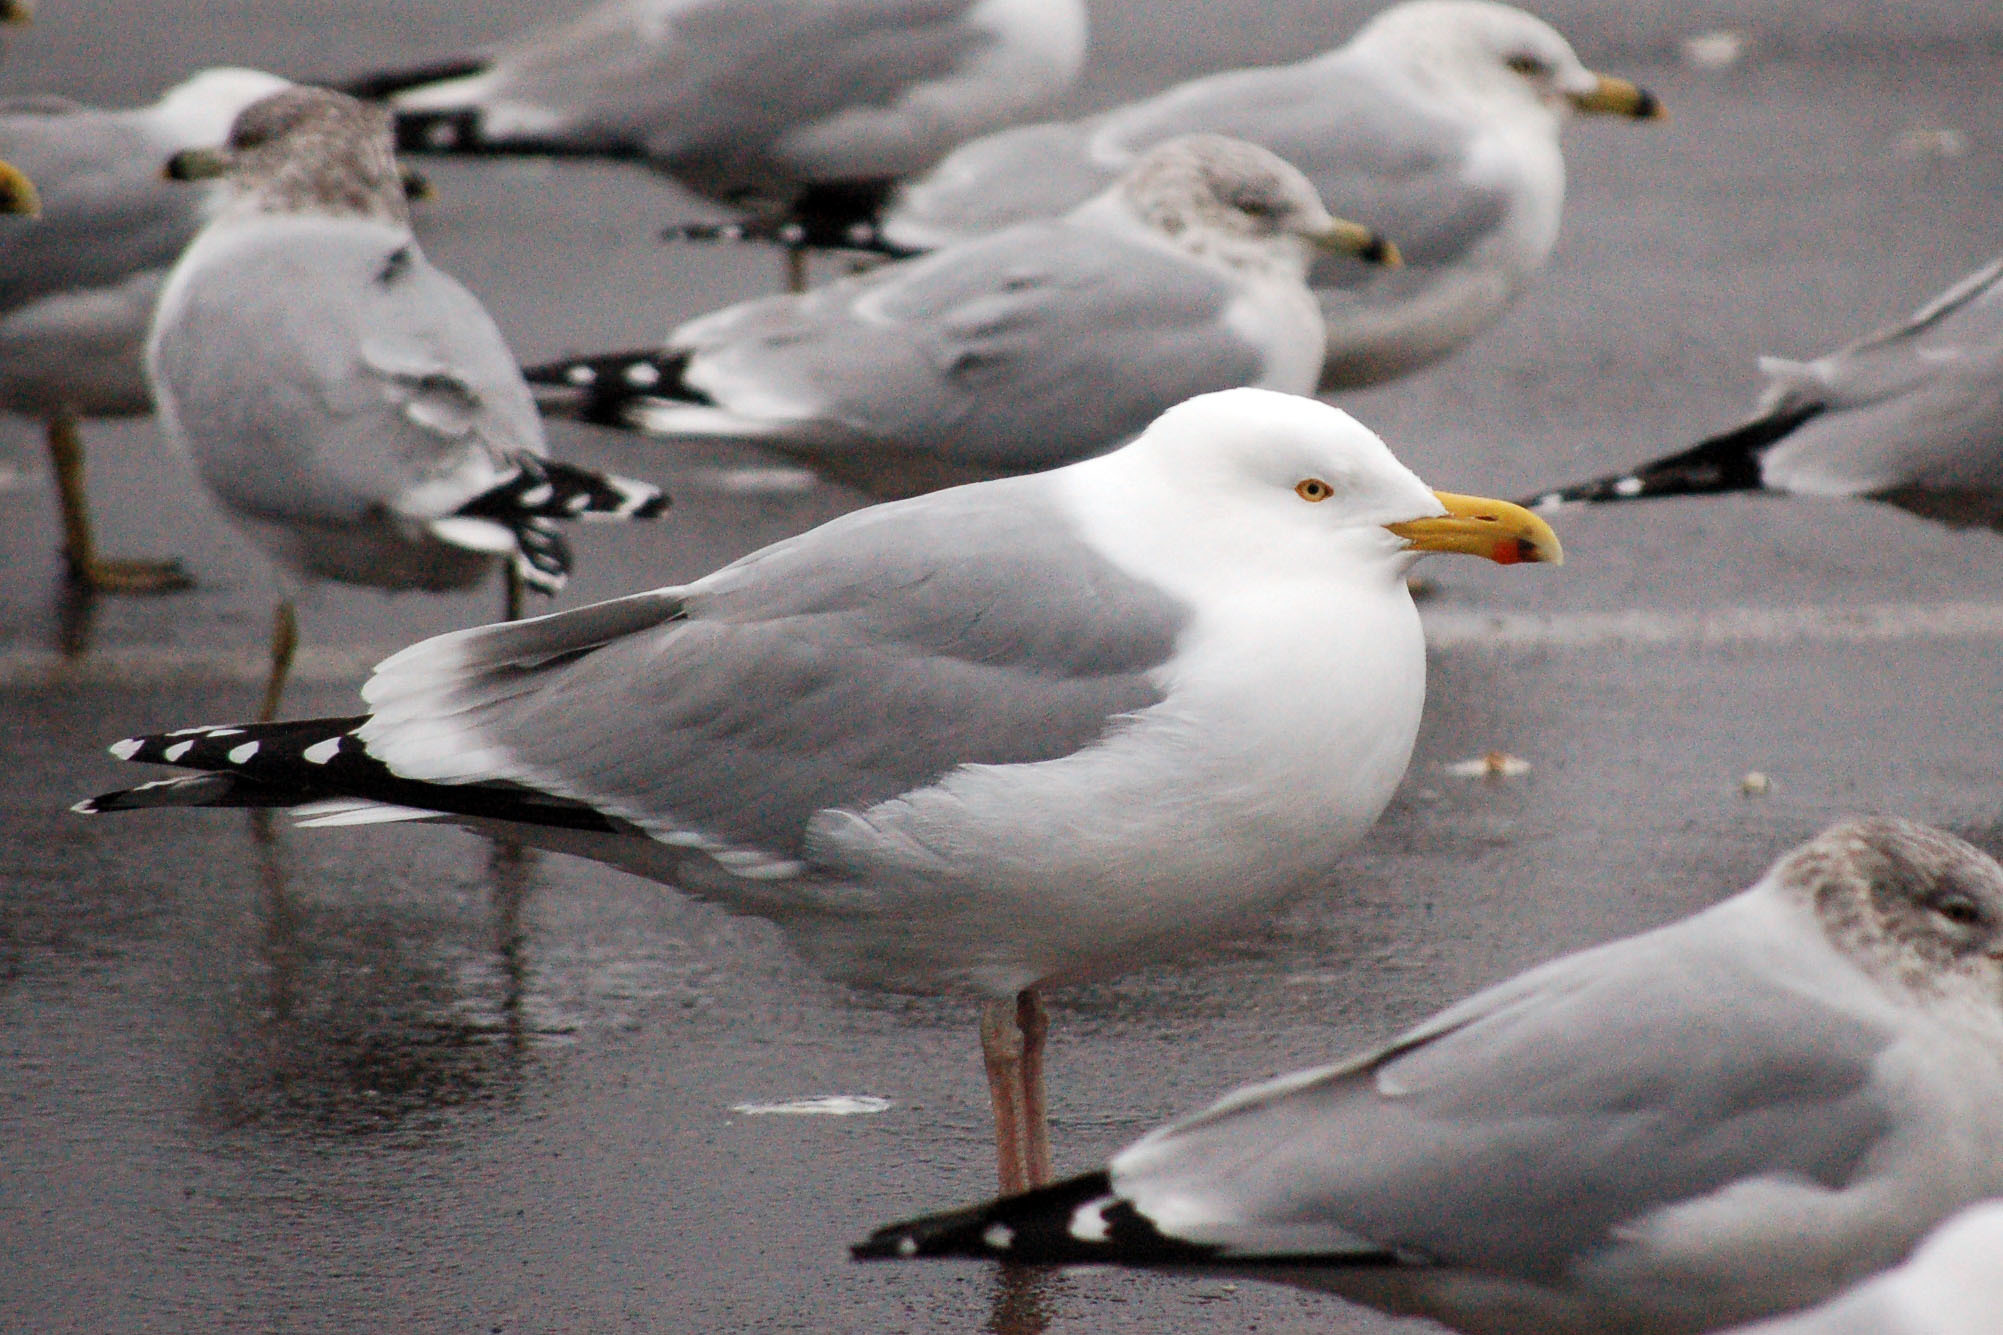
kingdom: Animalia
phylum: Chordata
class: Aves
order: Charadriiformes
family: Laridae
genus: Larus
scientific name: Larus argentatus
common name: Herring gull
